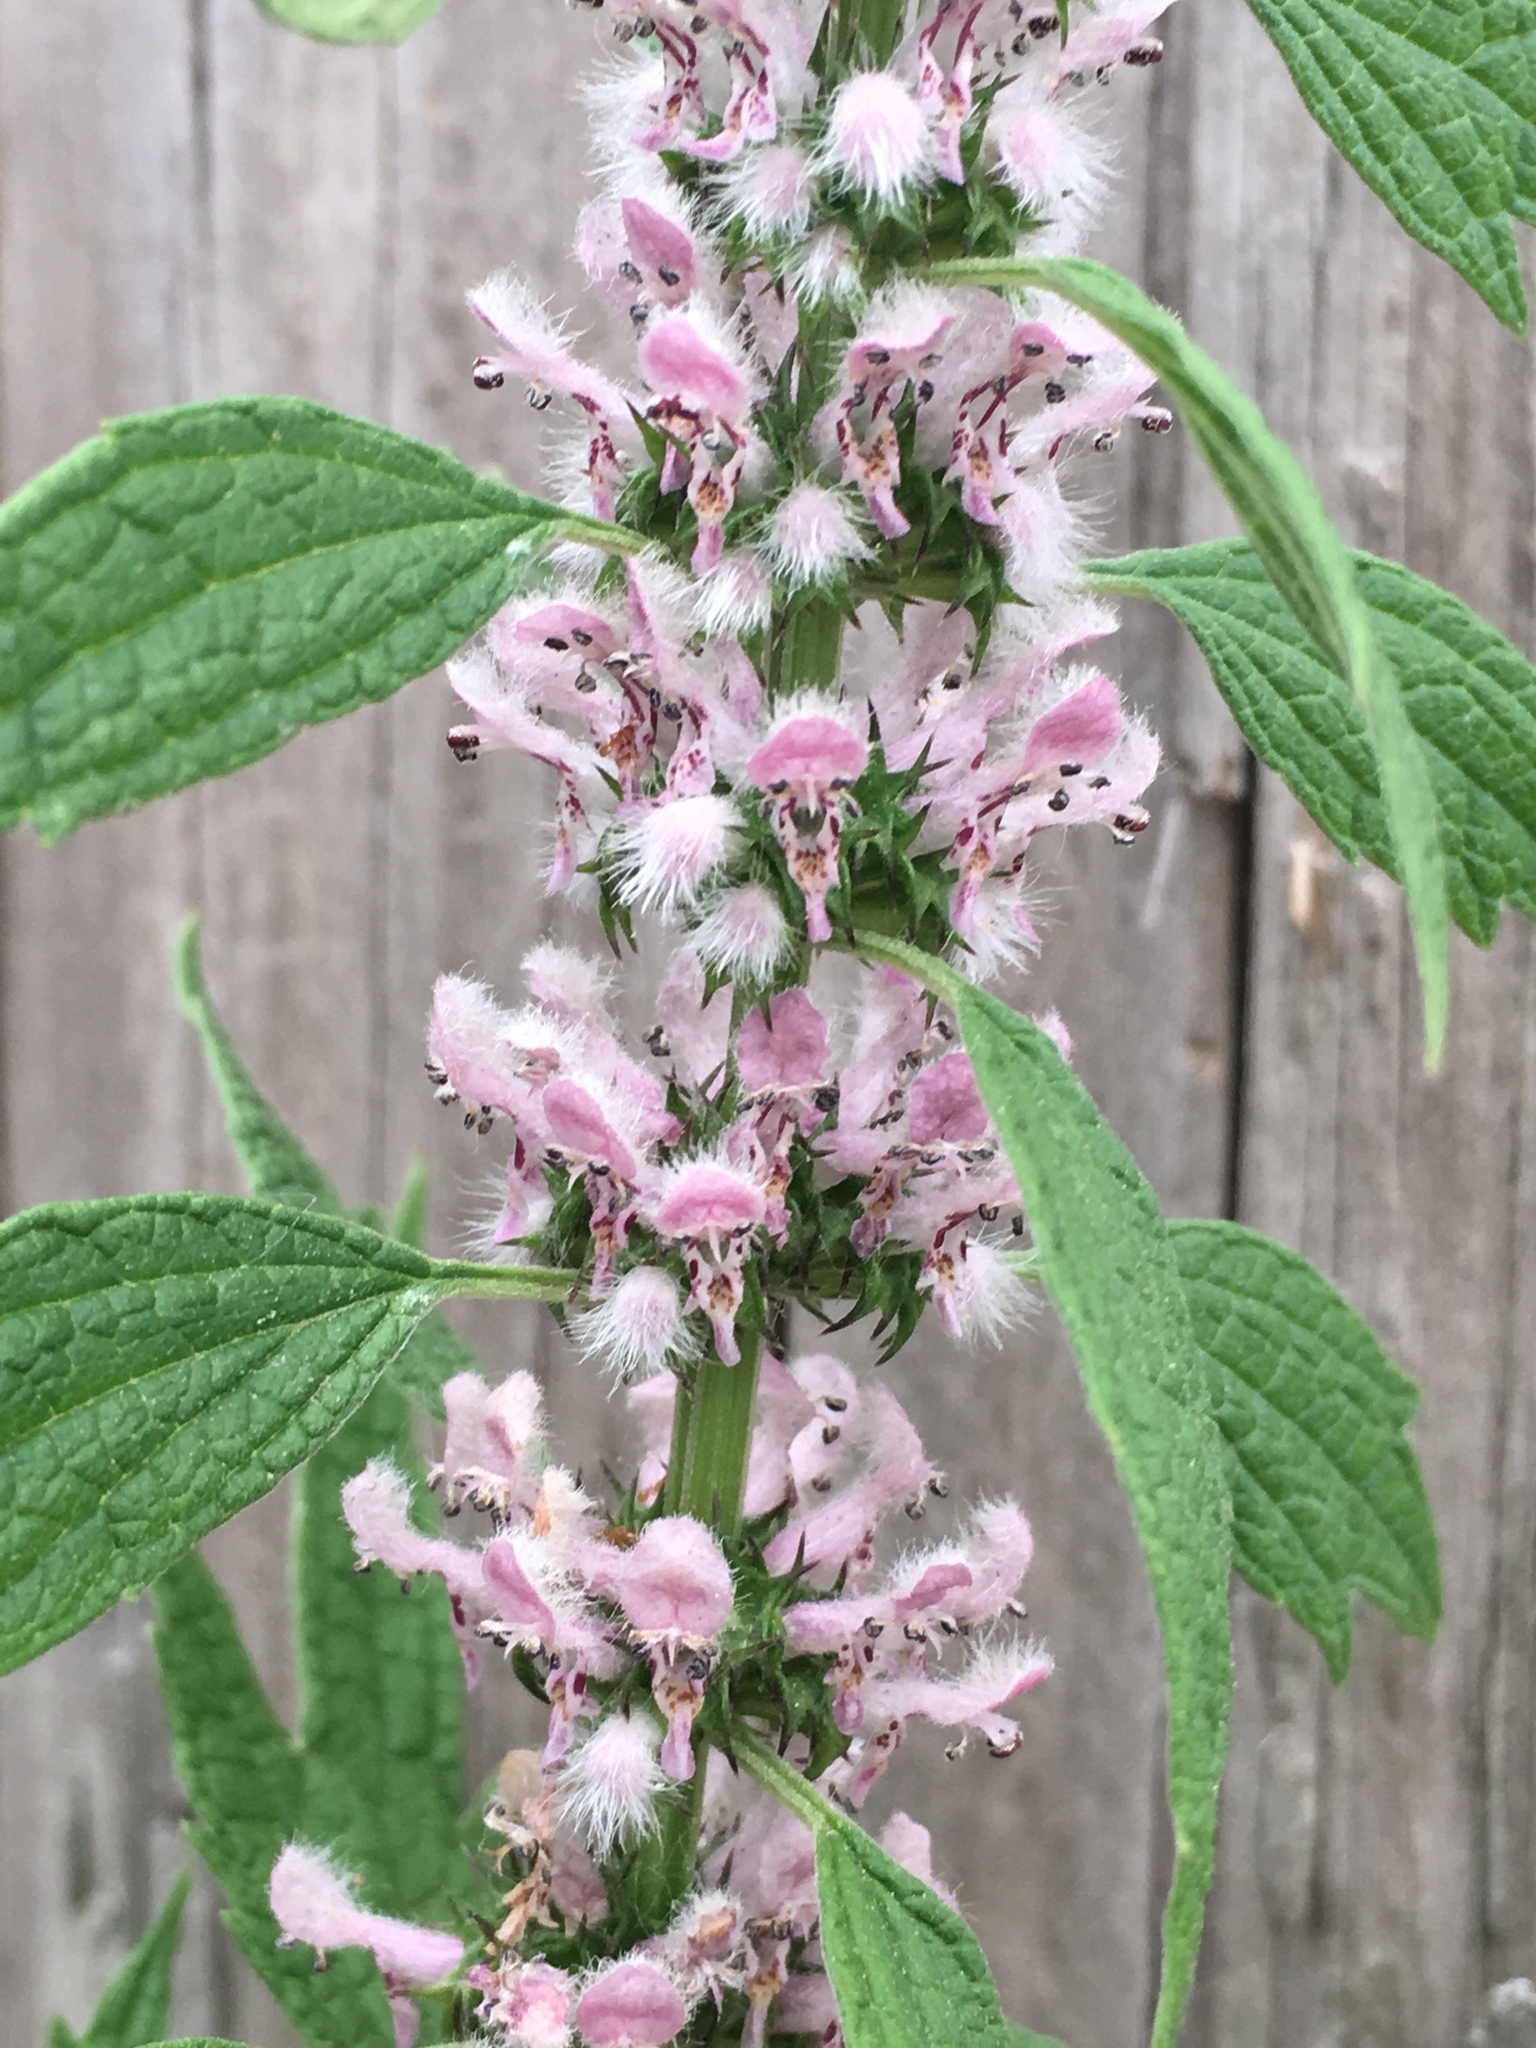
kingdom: Plantae
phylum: Tracheophyta
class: Magnoliopsida
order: Lamiales
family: Lamiaceae
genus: Leonurus
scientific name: Leonurus cardiaca
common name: Motherwort
